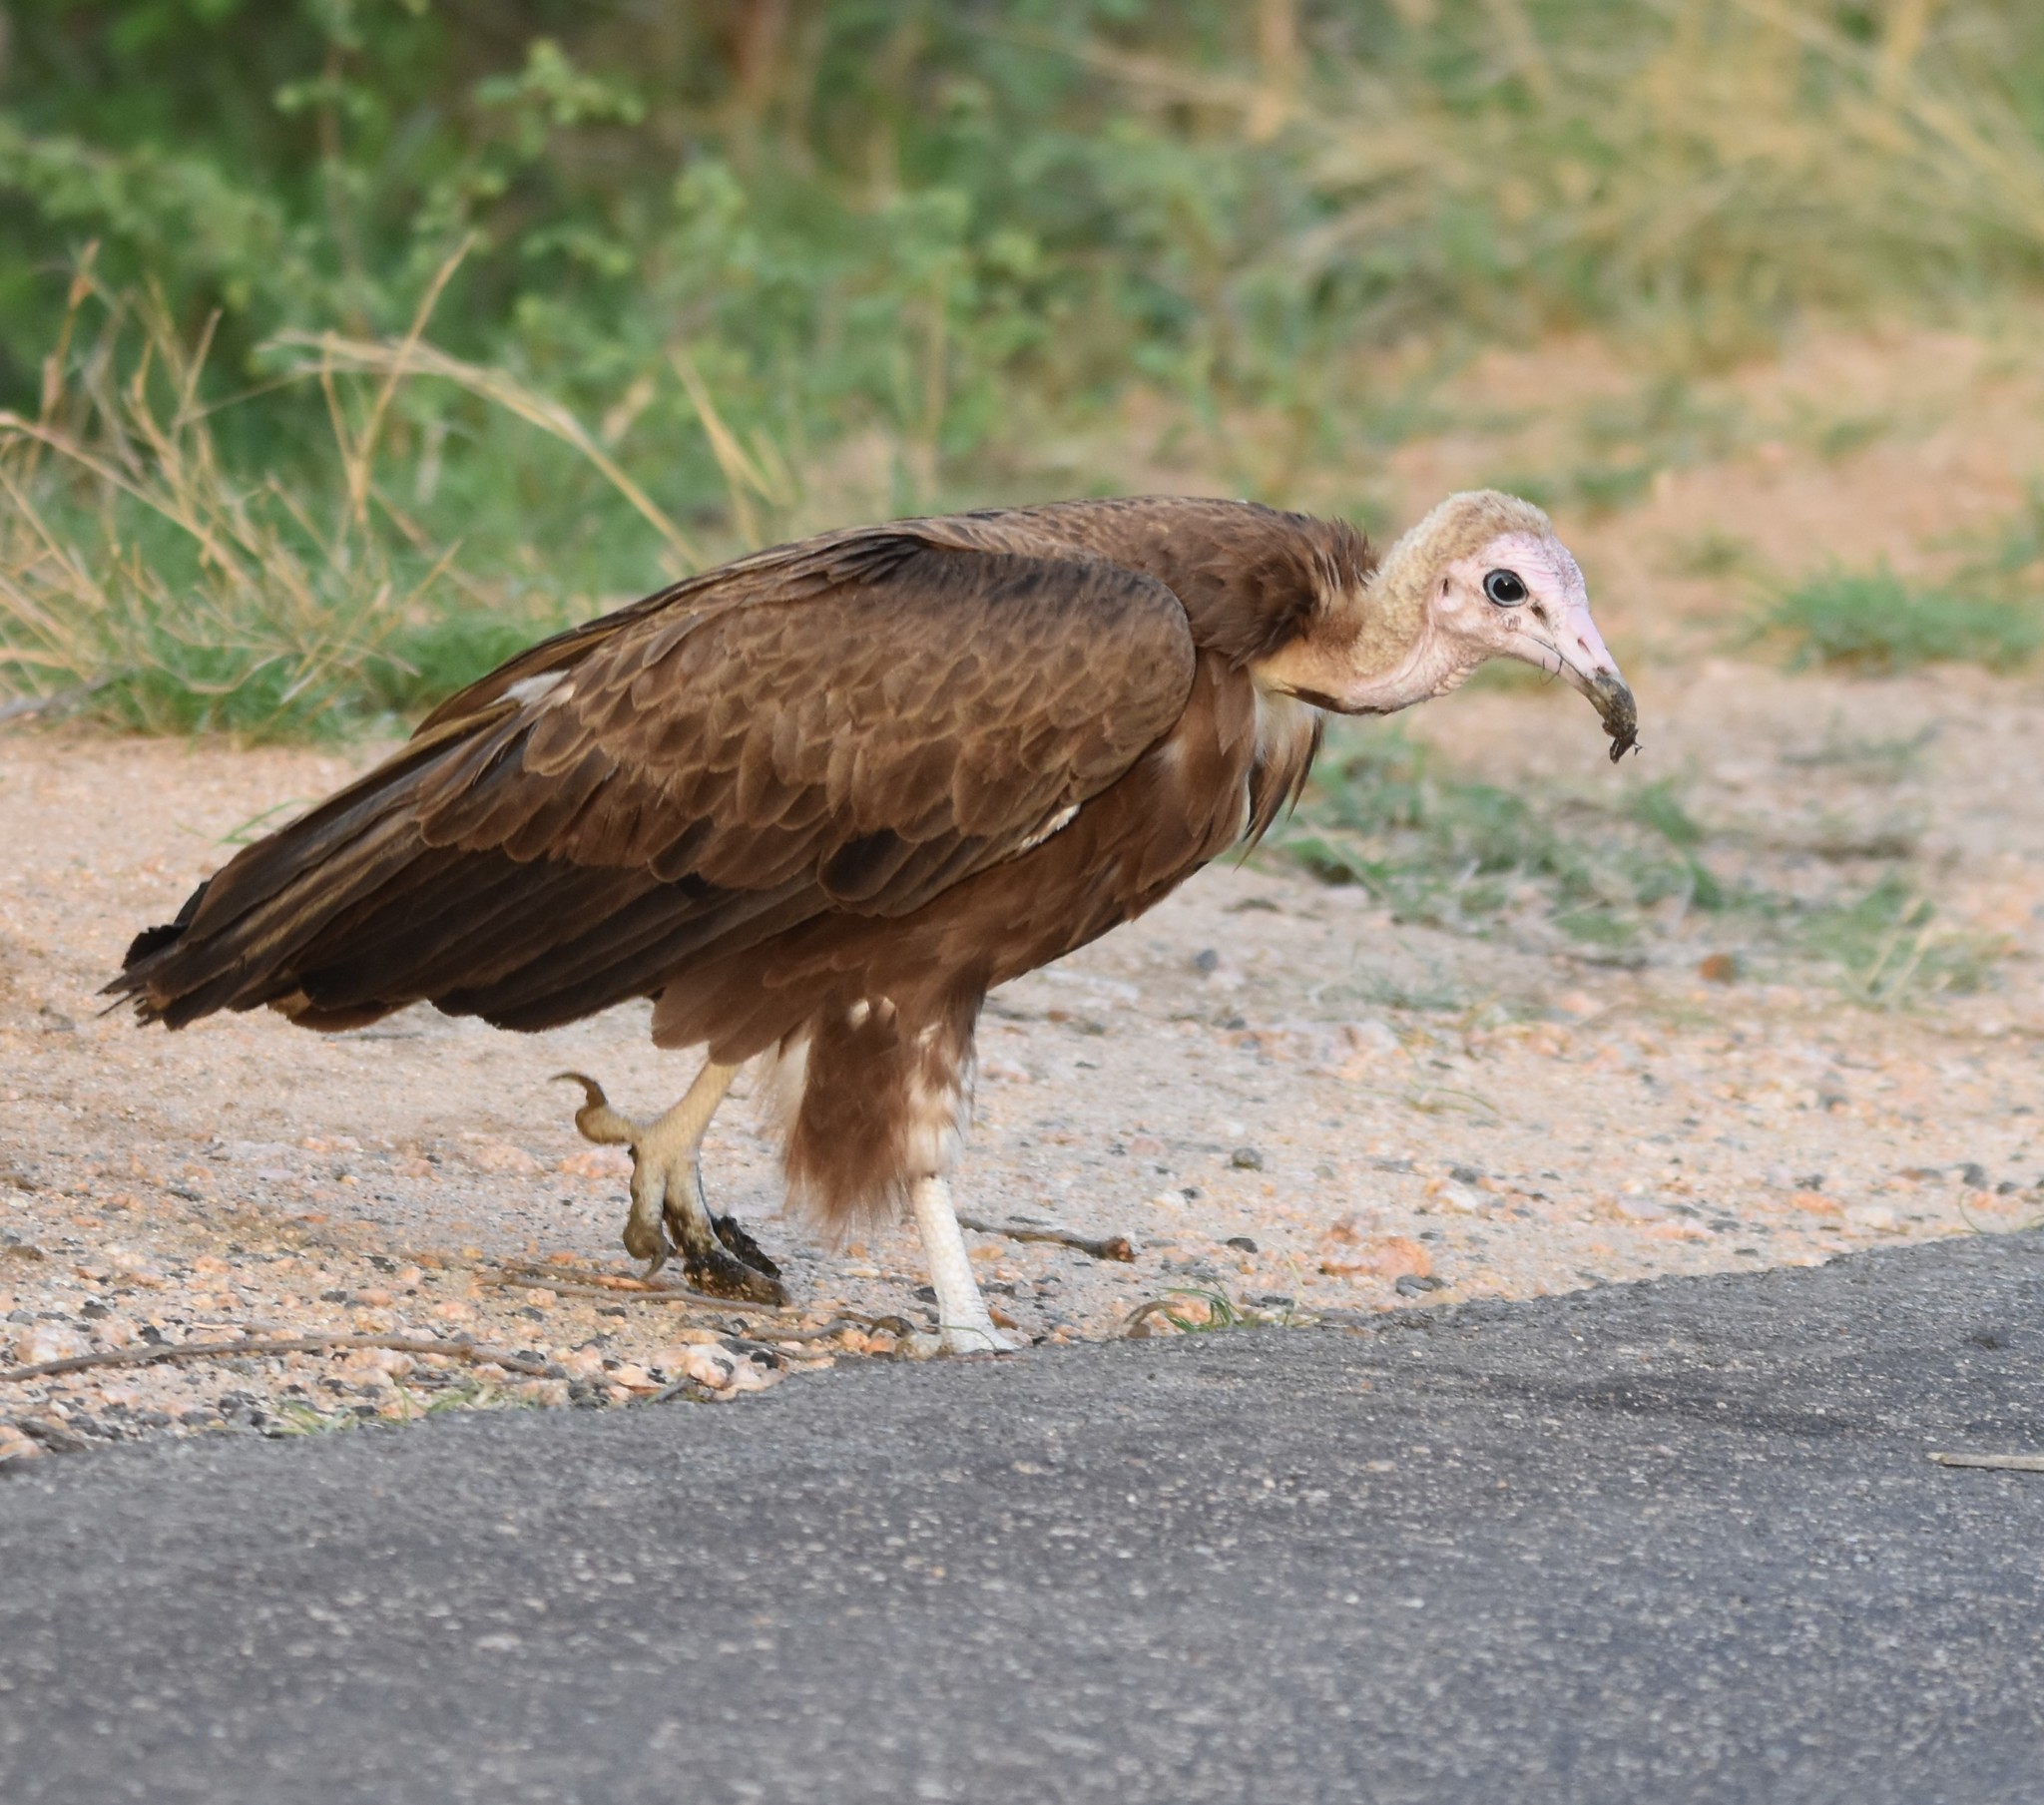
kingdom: Animalia
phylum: Chordata
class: Aves
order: Accipitriformes
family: Accipitridae
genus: Necrosyrtes
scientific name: Necrosyrtes monachus
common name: Hooded vulture
